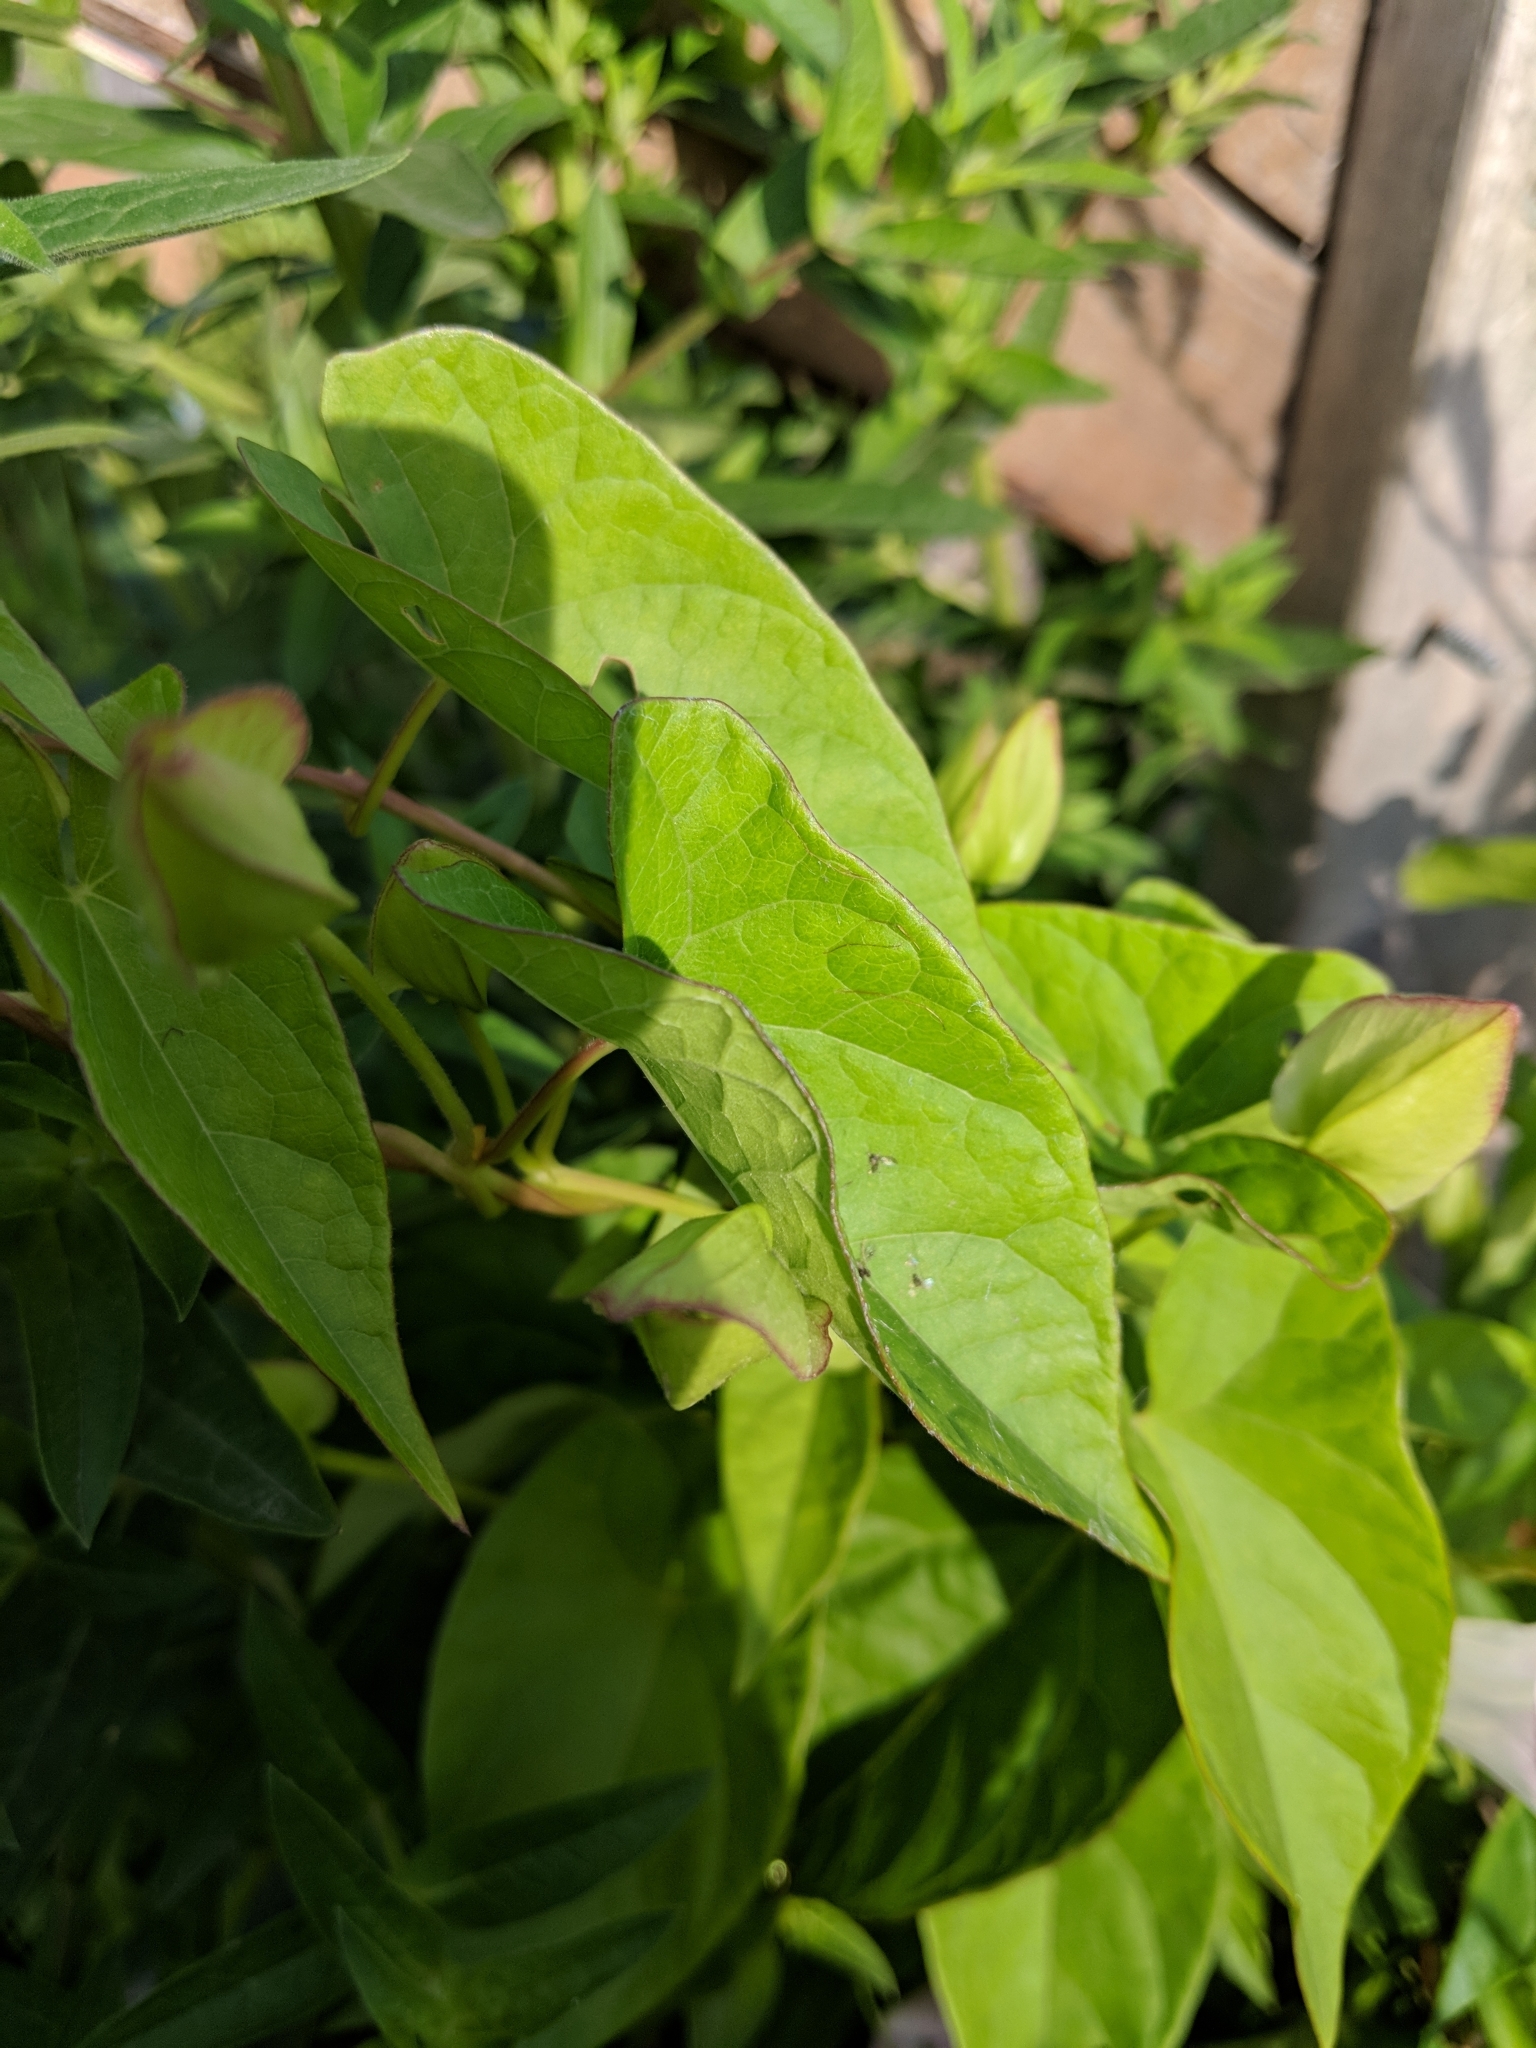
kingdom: Plantae
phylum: Tracheophyta
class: Magnoliopsida
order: Solanales
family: Convolvulaceae
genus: Calystegia
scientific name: Calystegia sepium
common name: Hedge bindweed
